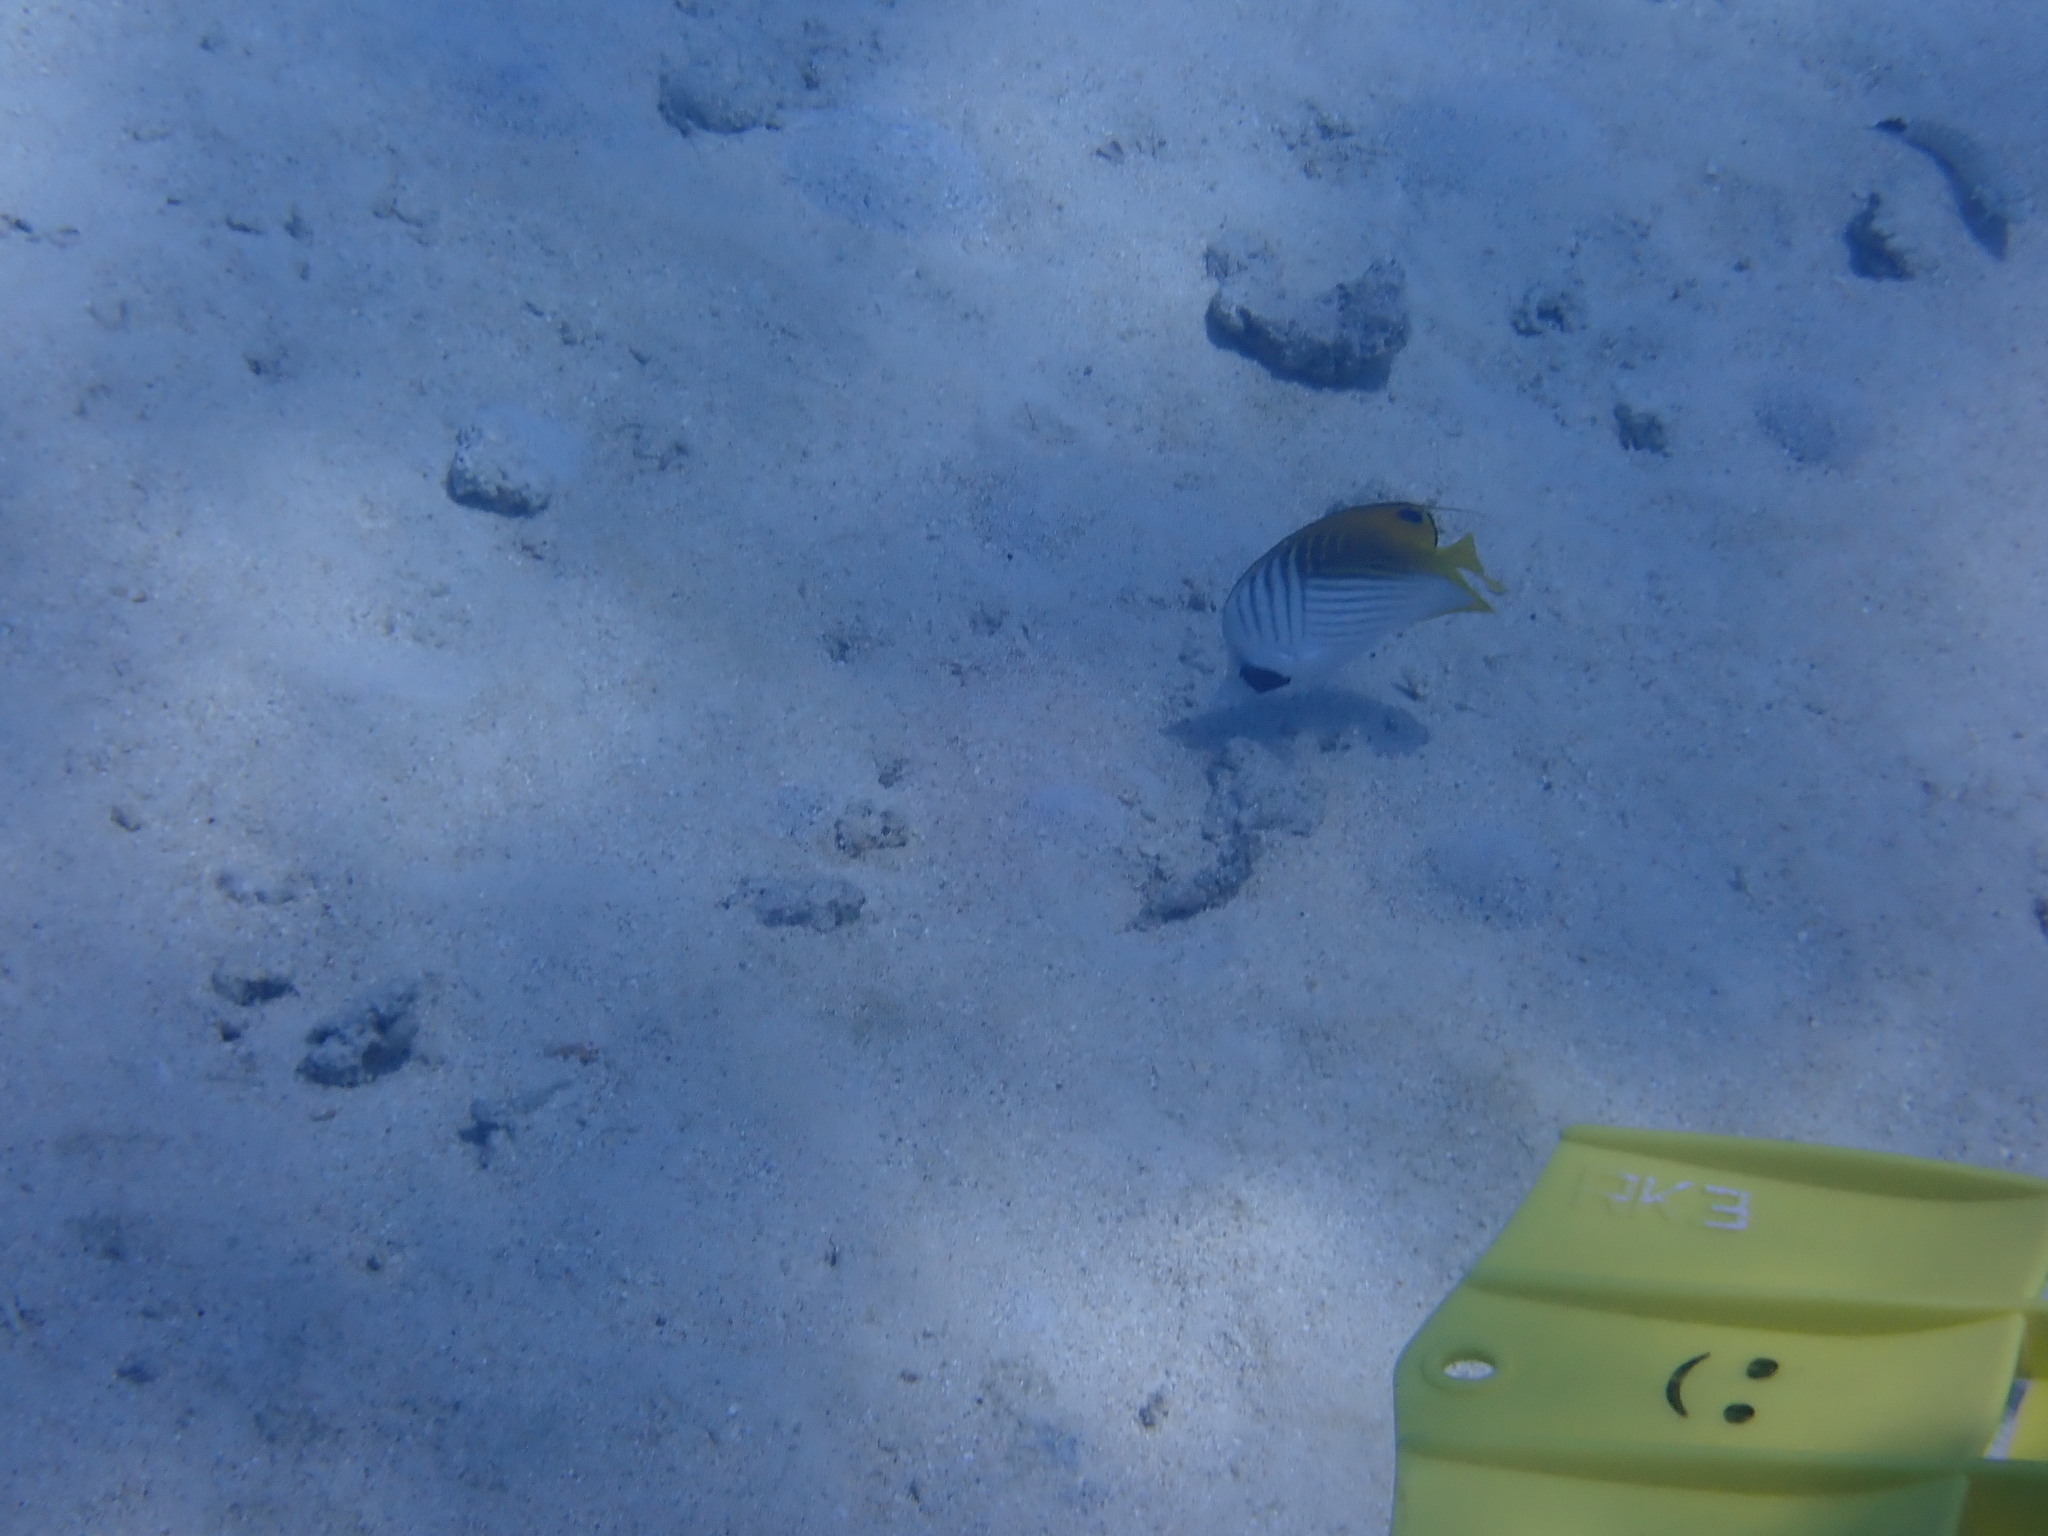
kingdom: Animalia
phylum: Chordata
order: Perciformes
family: Chaetodontidae
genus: Chaetodon
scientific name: Chaetodon auriga
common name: Threadfin butterflyfish
